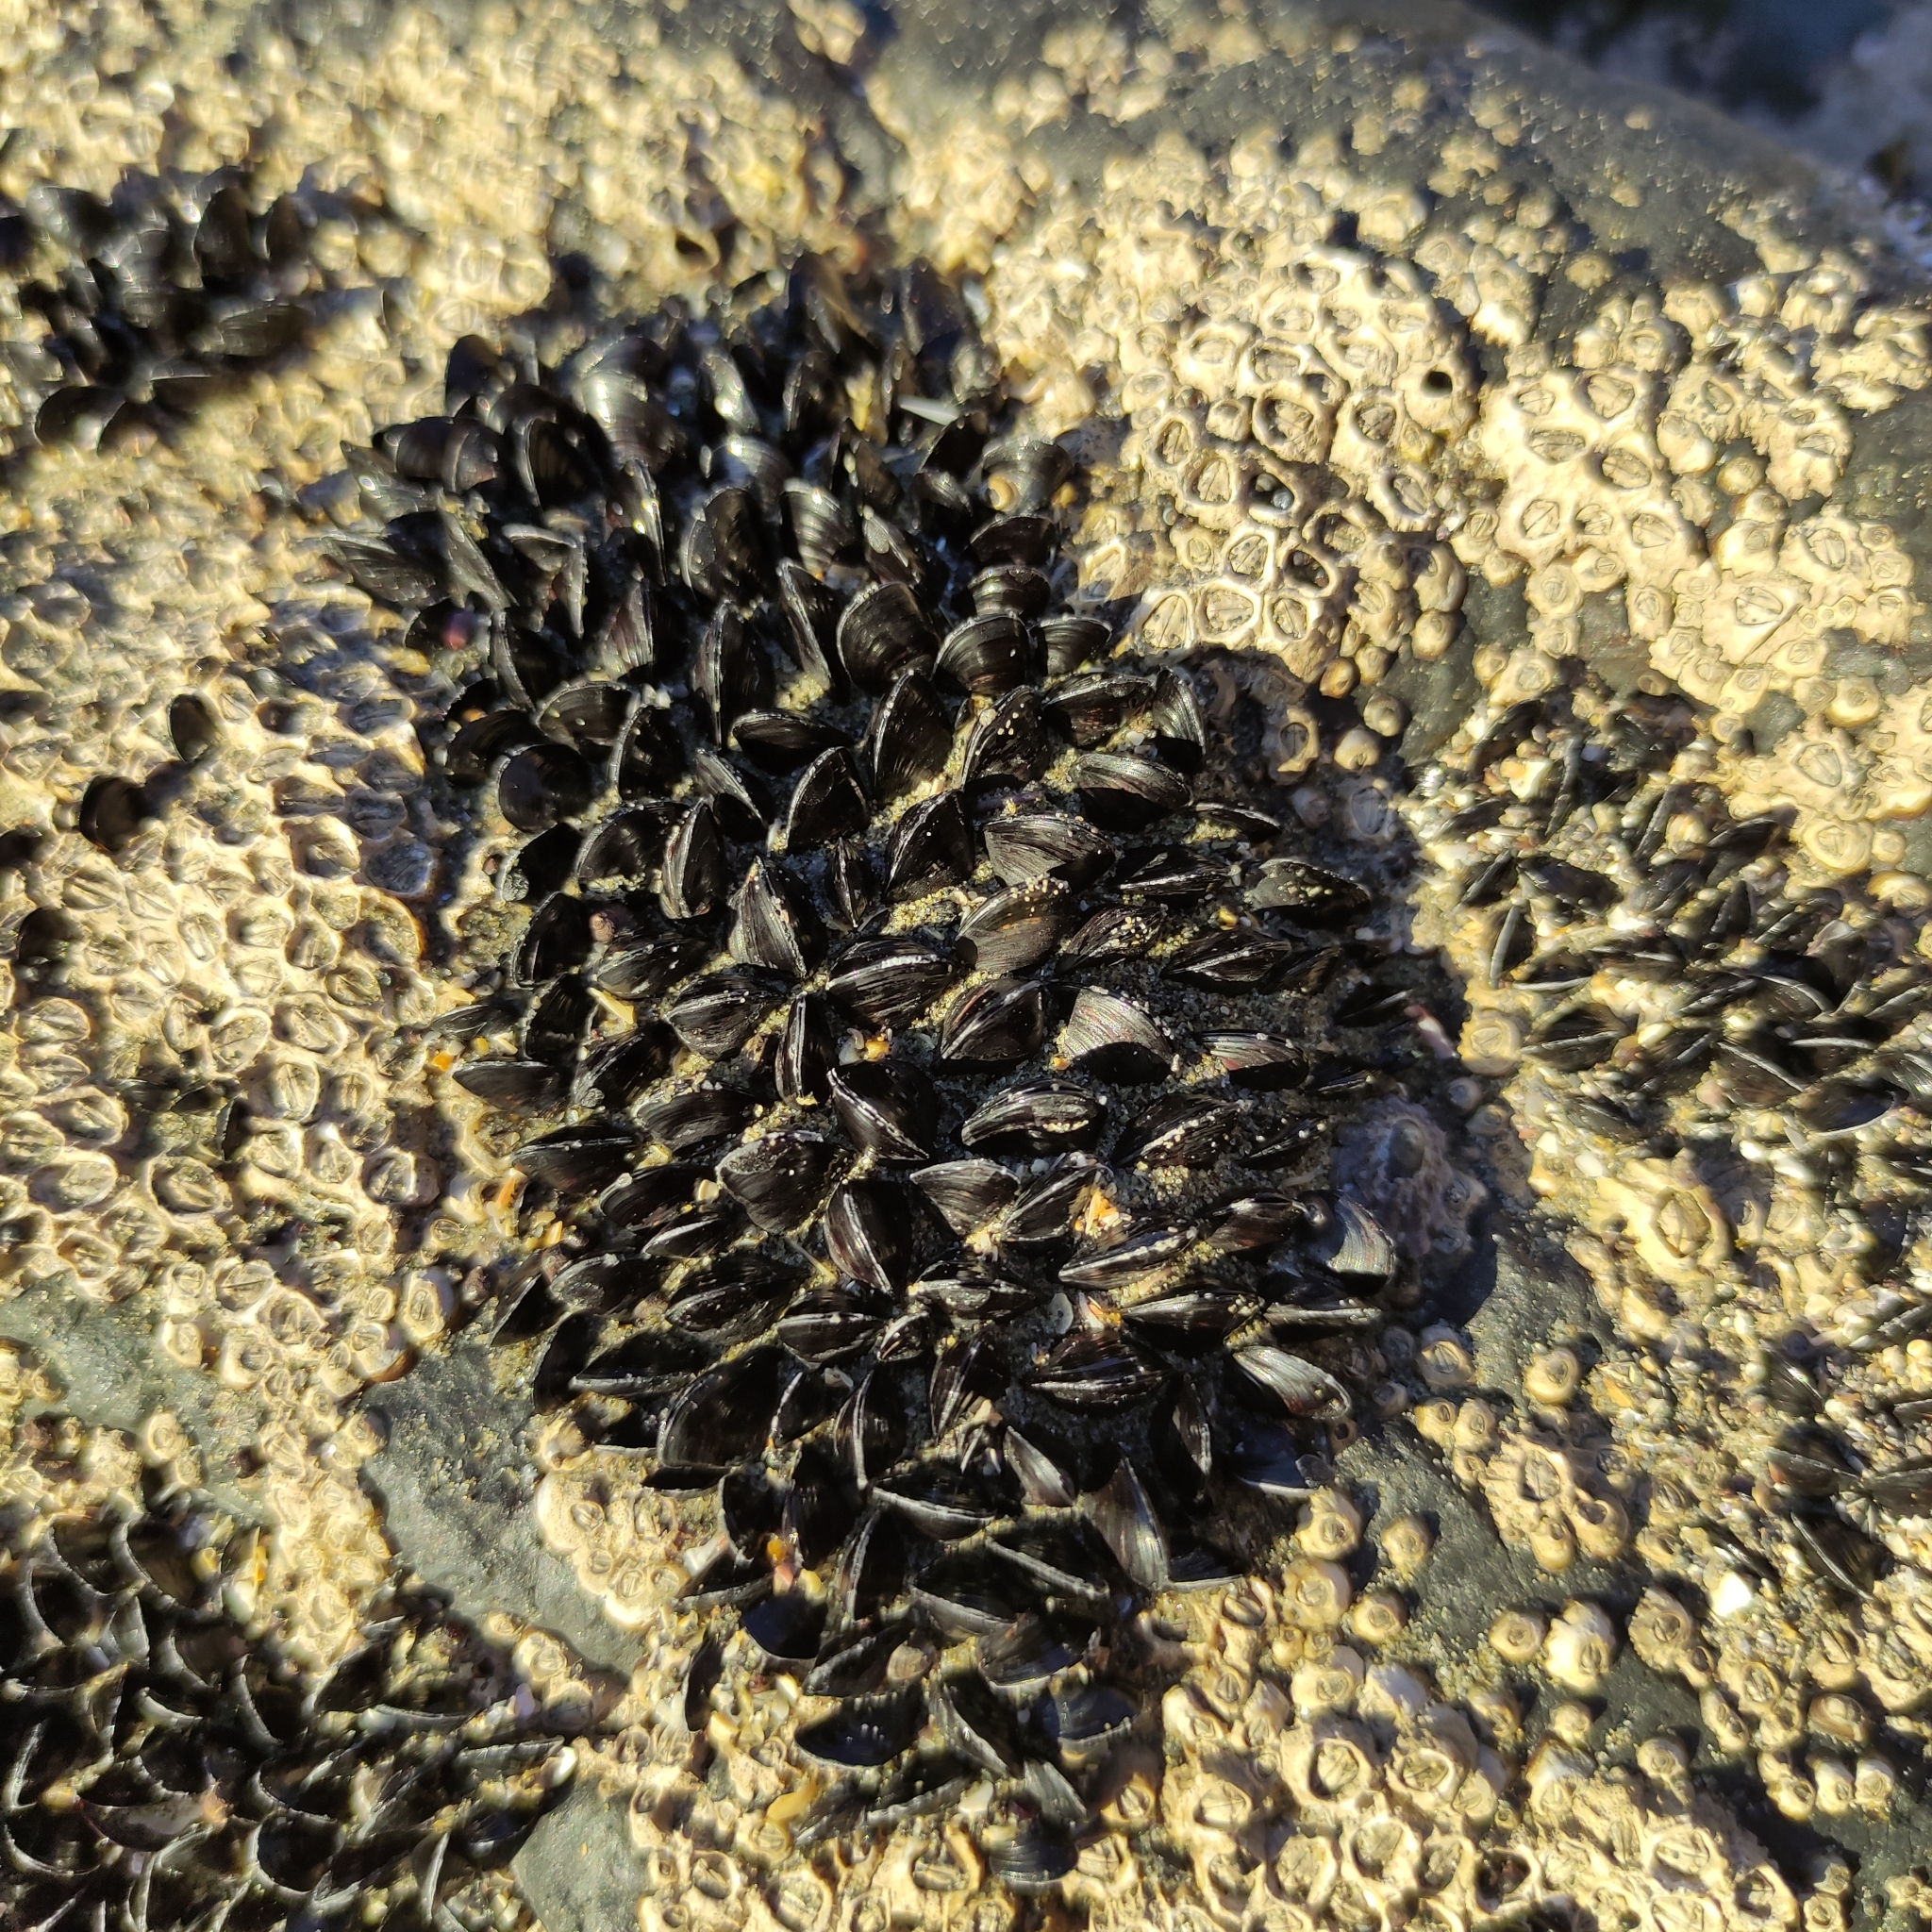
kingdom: Animalia
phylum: Mollusca
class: Bivalvia
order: Mytilida
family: Mytilidae
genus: Xenostrobus
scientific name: Xenostrobus neozelanicus
